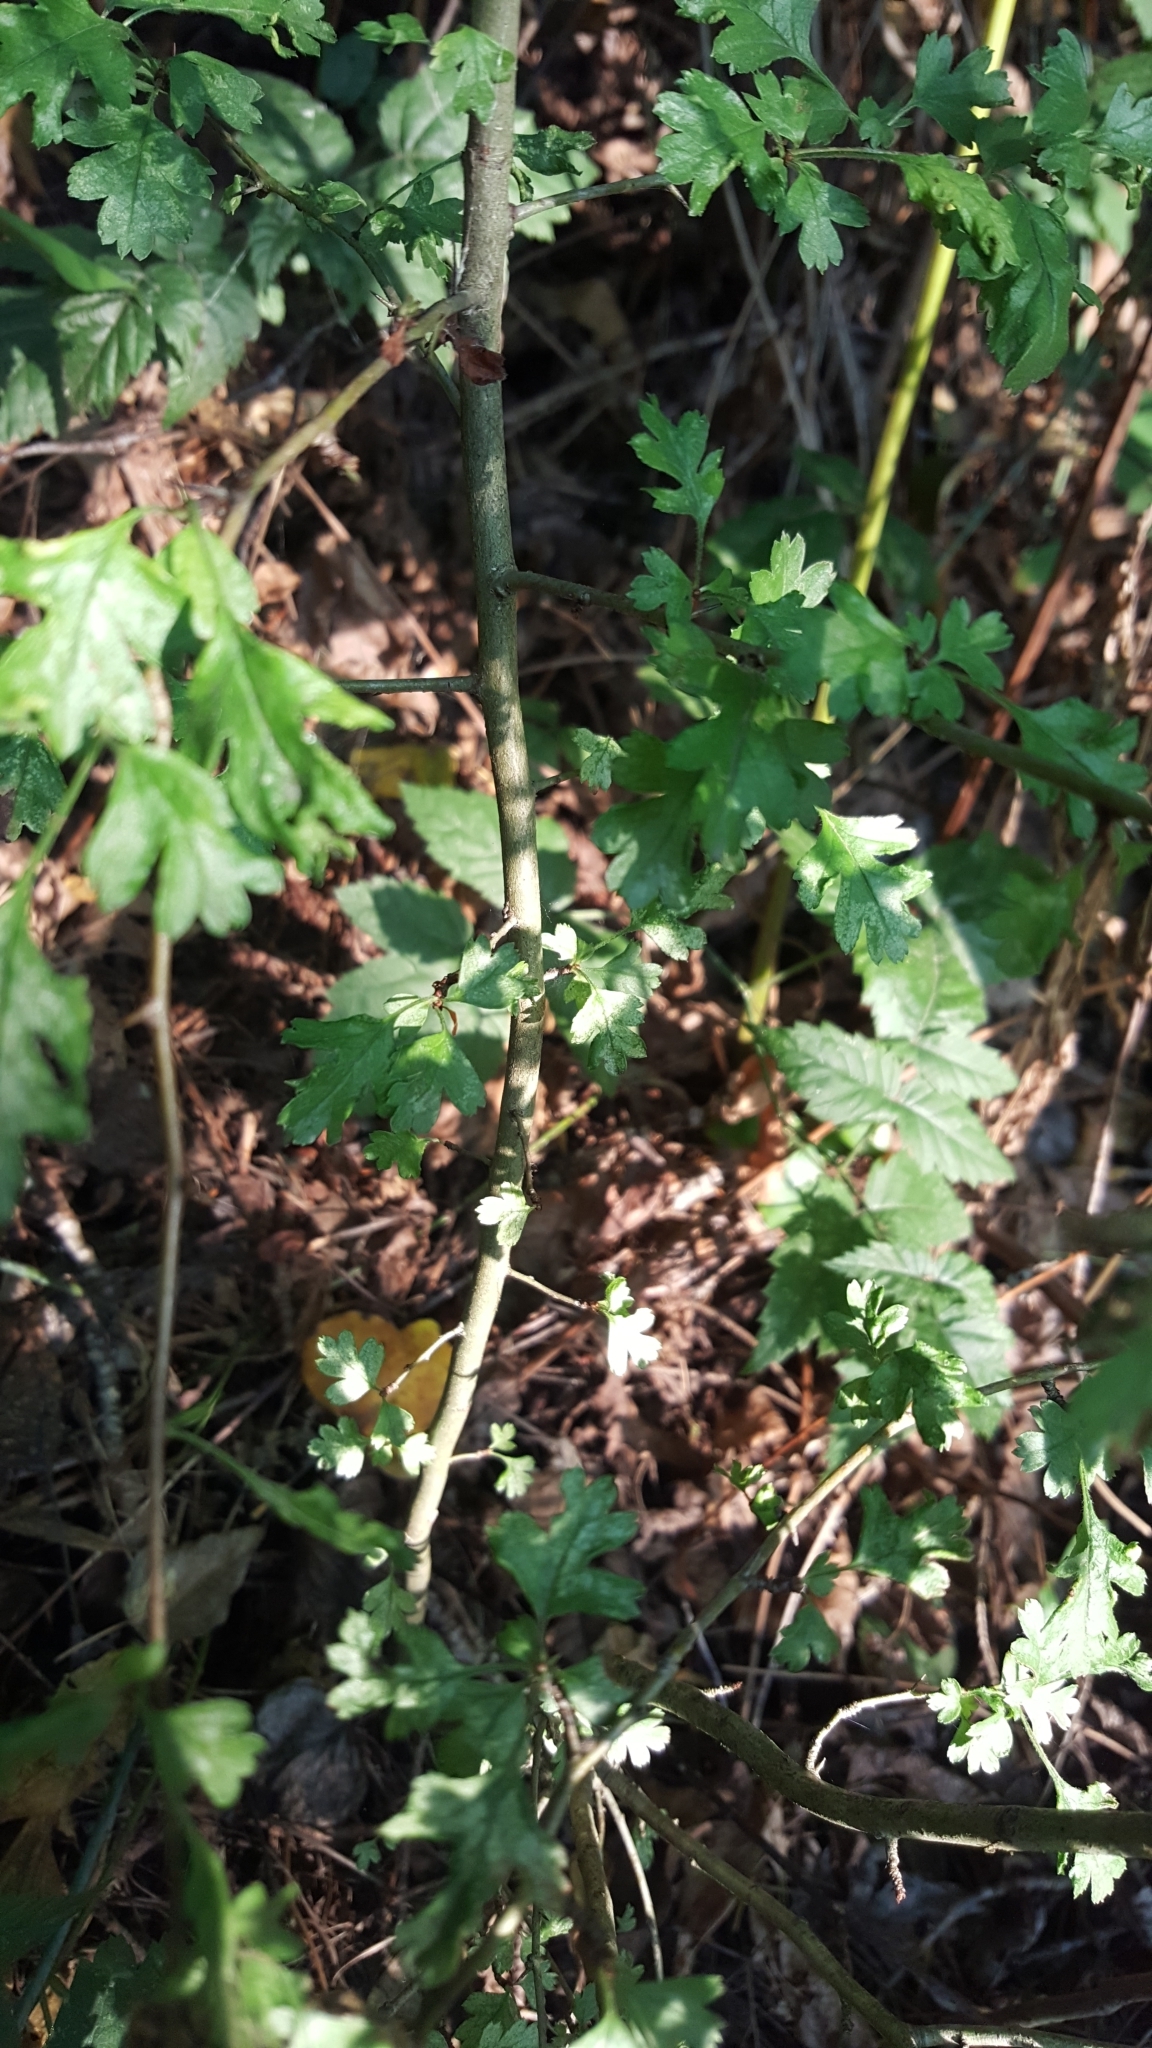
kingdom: Plantae
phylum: Tracheophyta
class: Magnoliopsida
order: Rosales
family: Rosaceae
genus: Crataegus
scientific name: Crataegus monogyna
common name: Hawthorn
